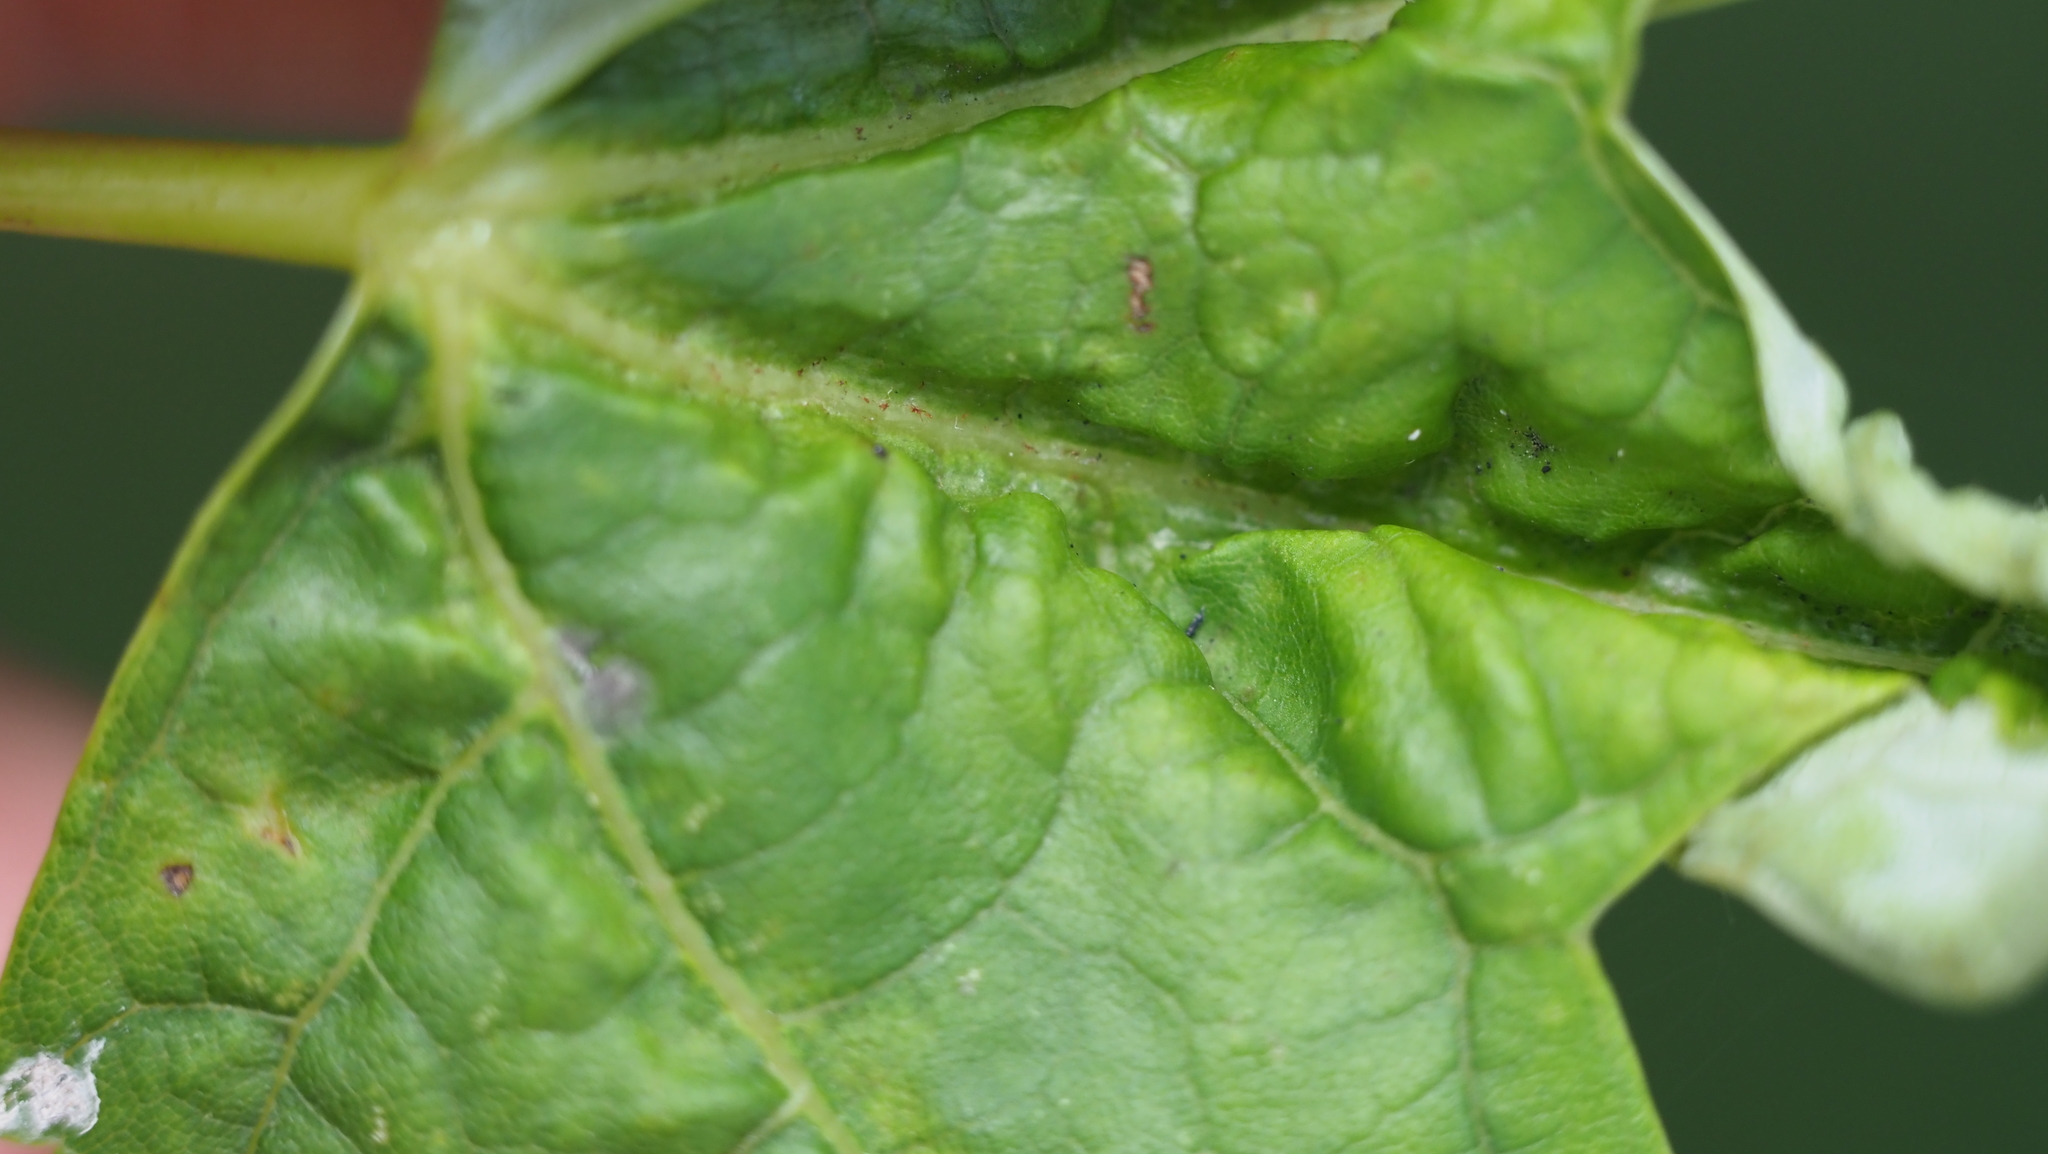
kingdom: Animalia
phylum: Arthropoda
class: Insecta
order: Diptera
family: Cecidomyiidae
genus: Dasineura
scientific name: Dasineura aceris
